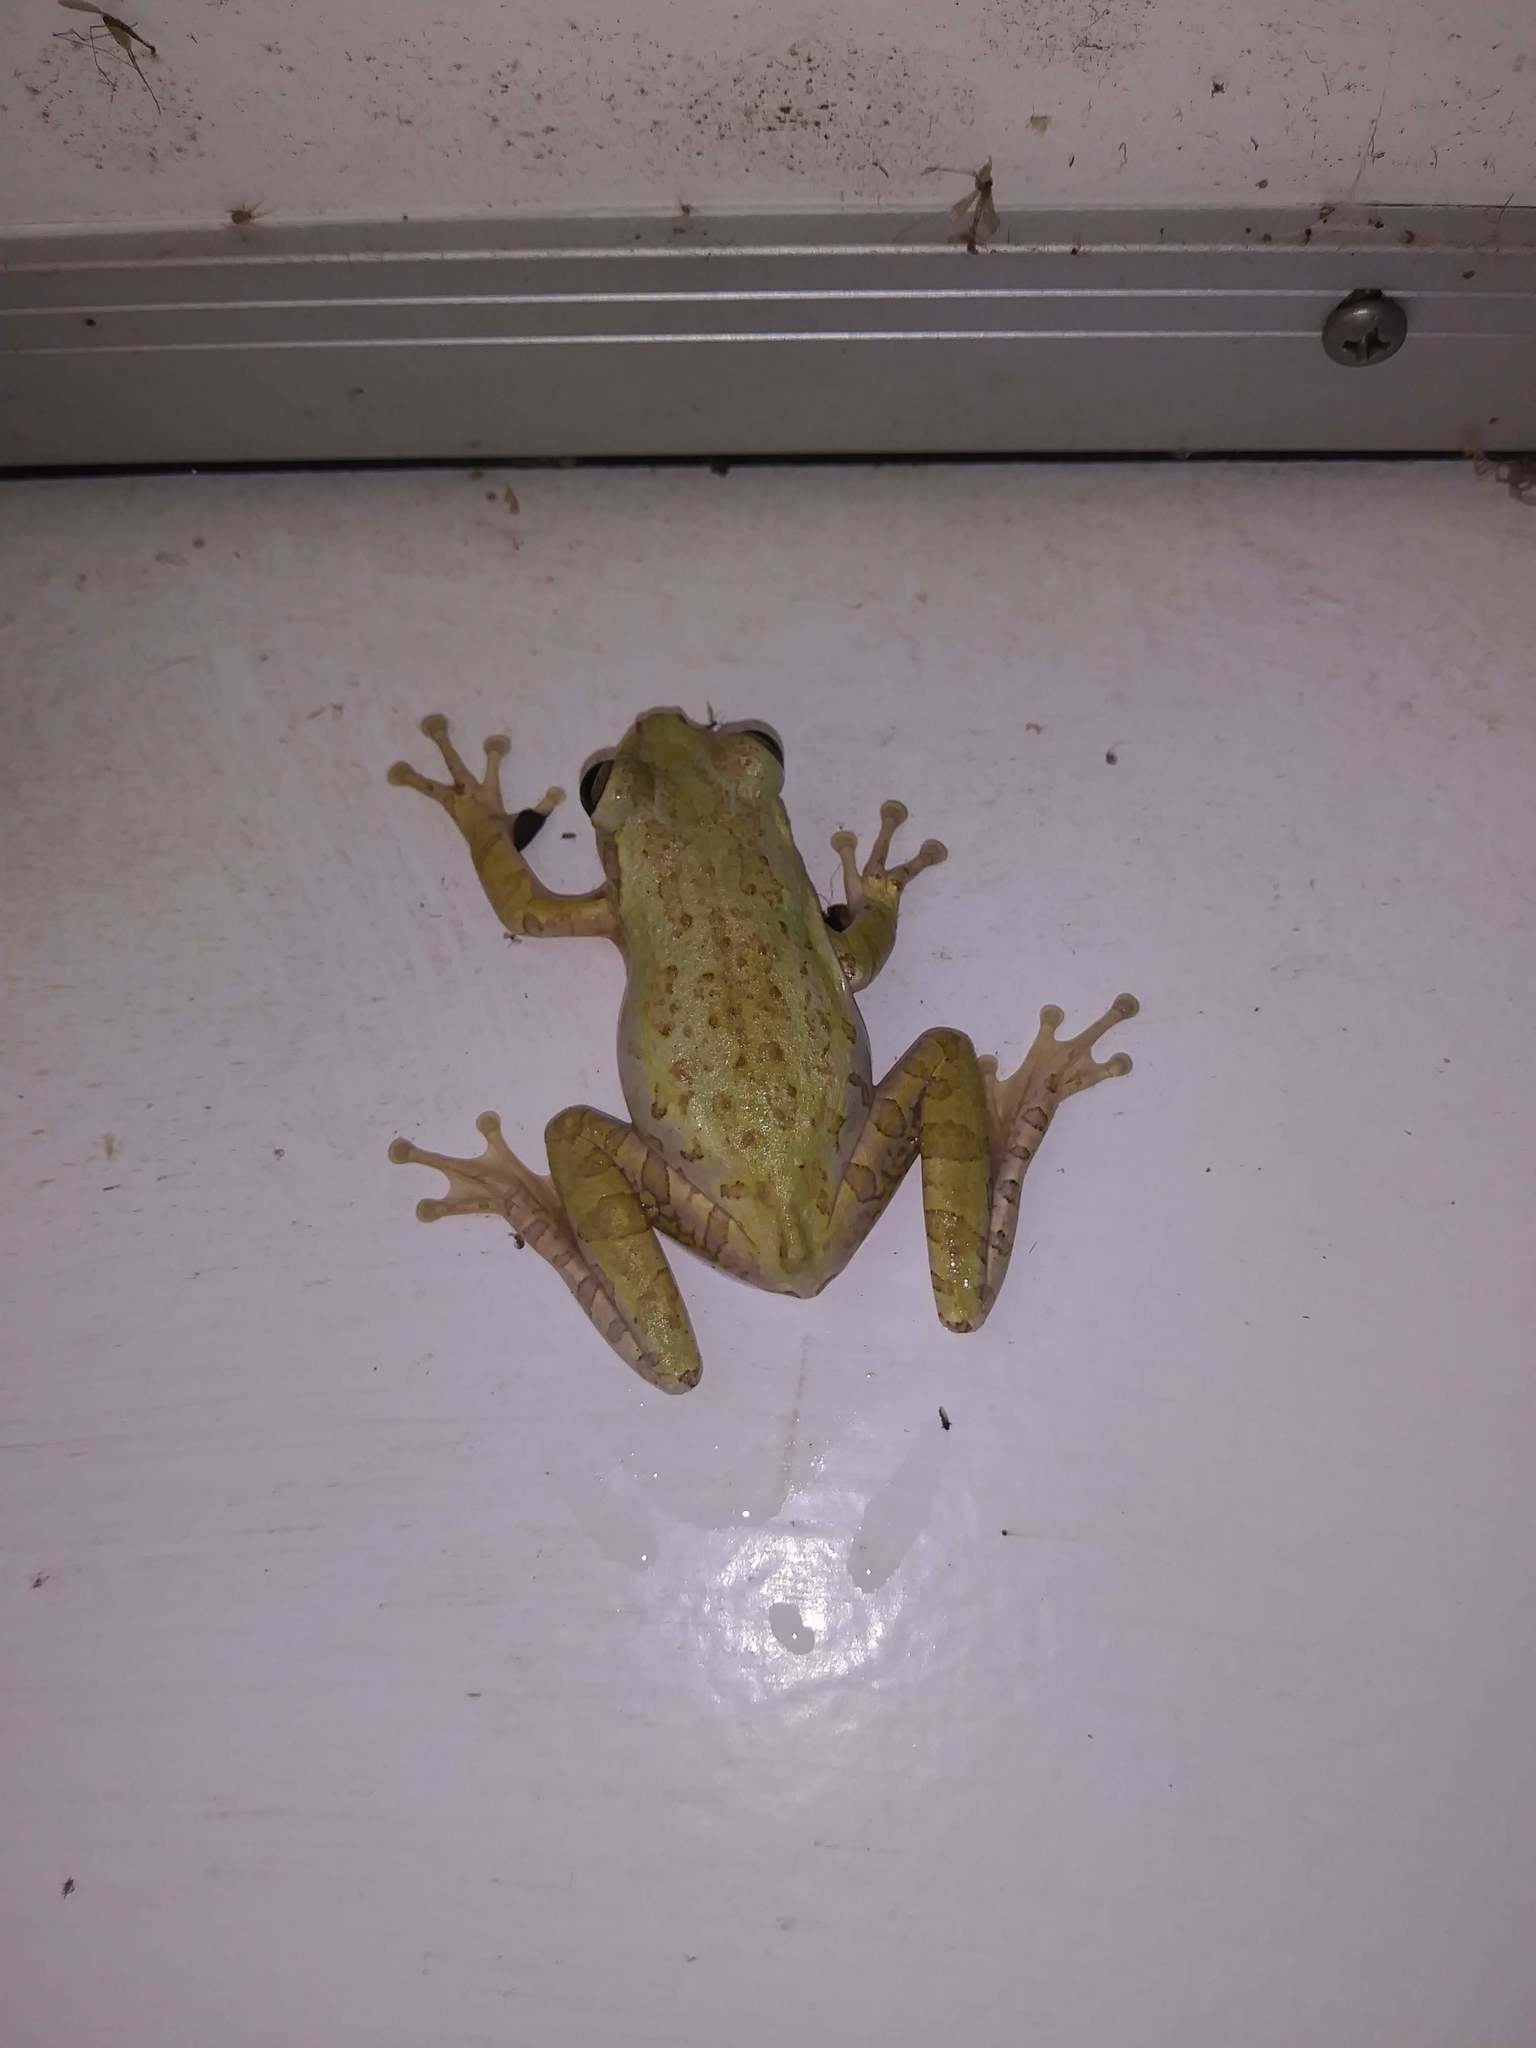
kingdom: Animalia
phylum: Chordata
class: Amphibia
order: Anura
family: Hylidae
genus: Osteopilus
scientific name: Osteopilus septentrionalis
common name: Cuban treefrog
